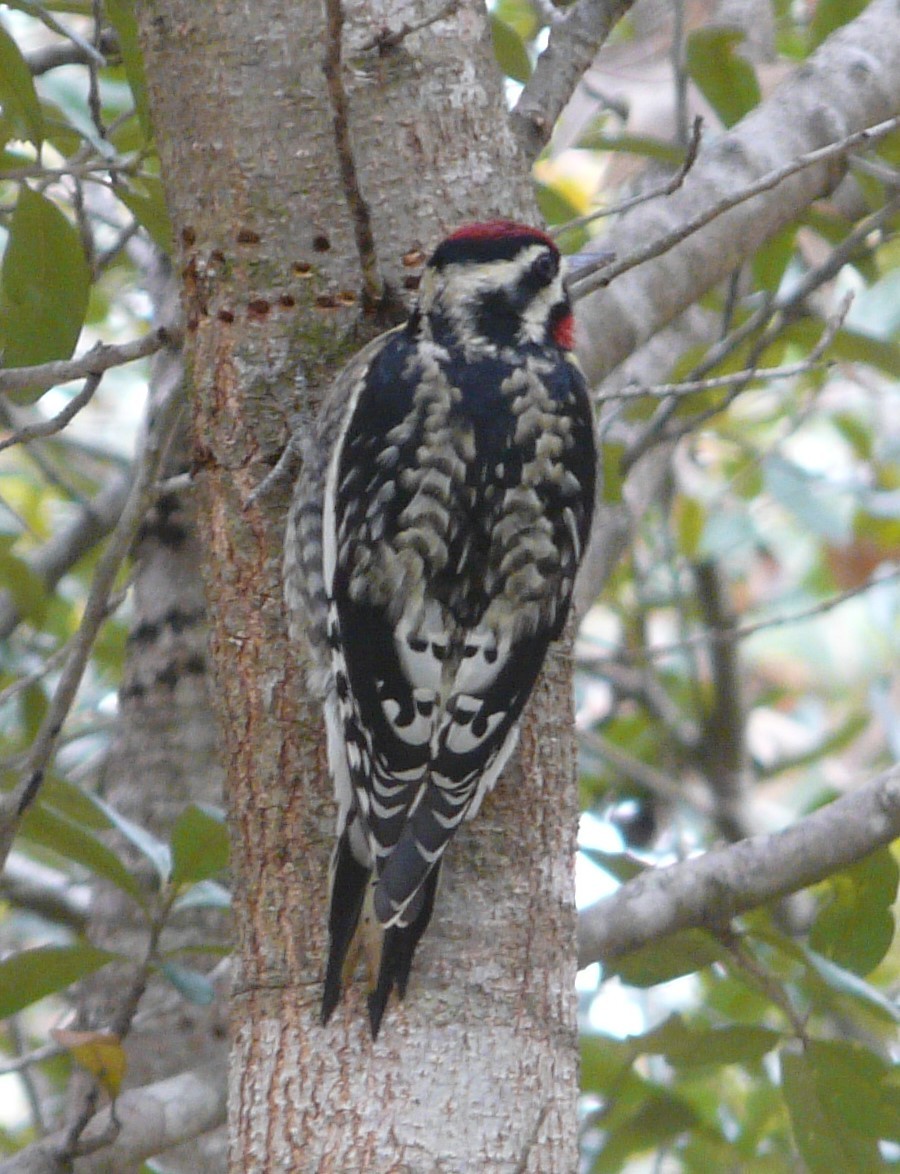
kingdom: Animalia
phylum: Chordata
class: Aves
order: Piciformes
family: Picidae
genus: Sphyrapicus
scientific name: Sphyrapicus varius
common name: Yellow-bellied sapsucker
